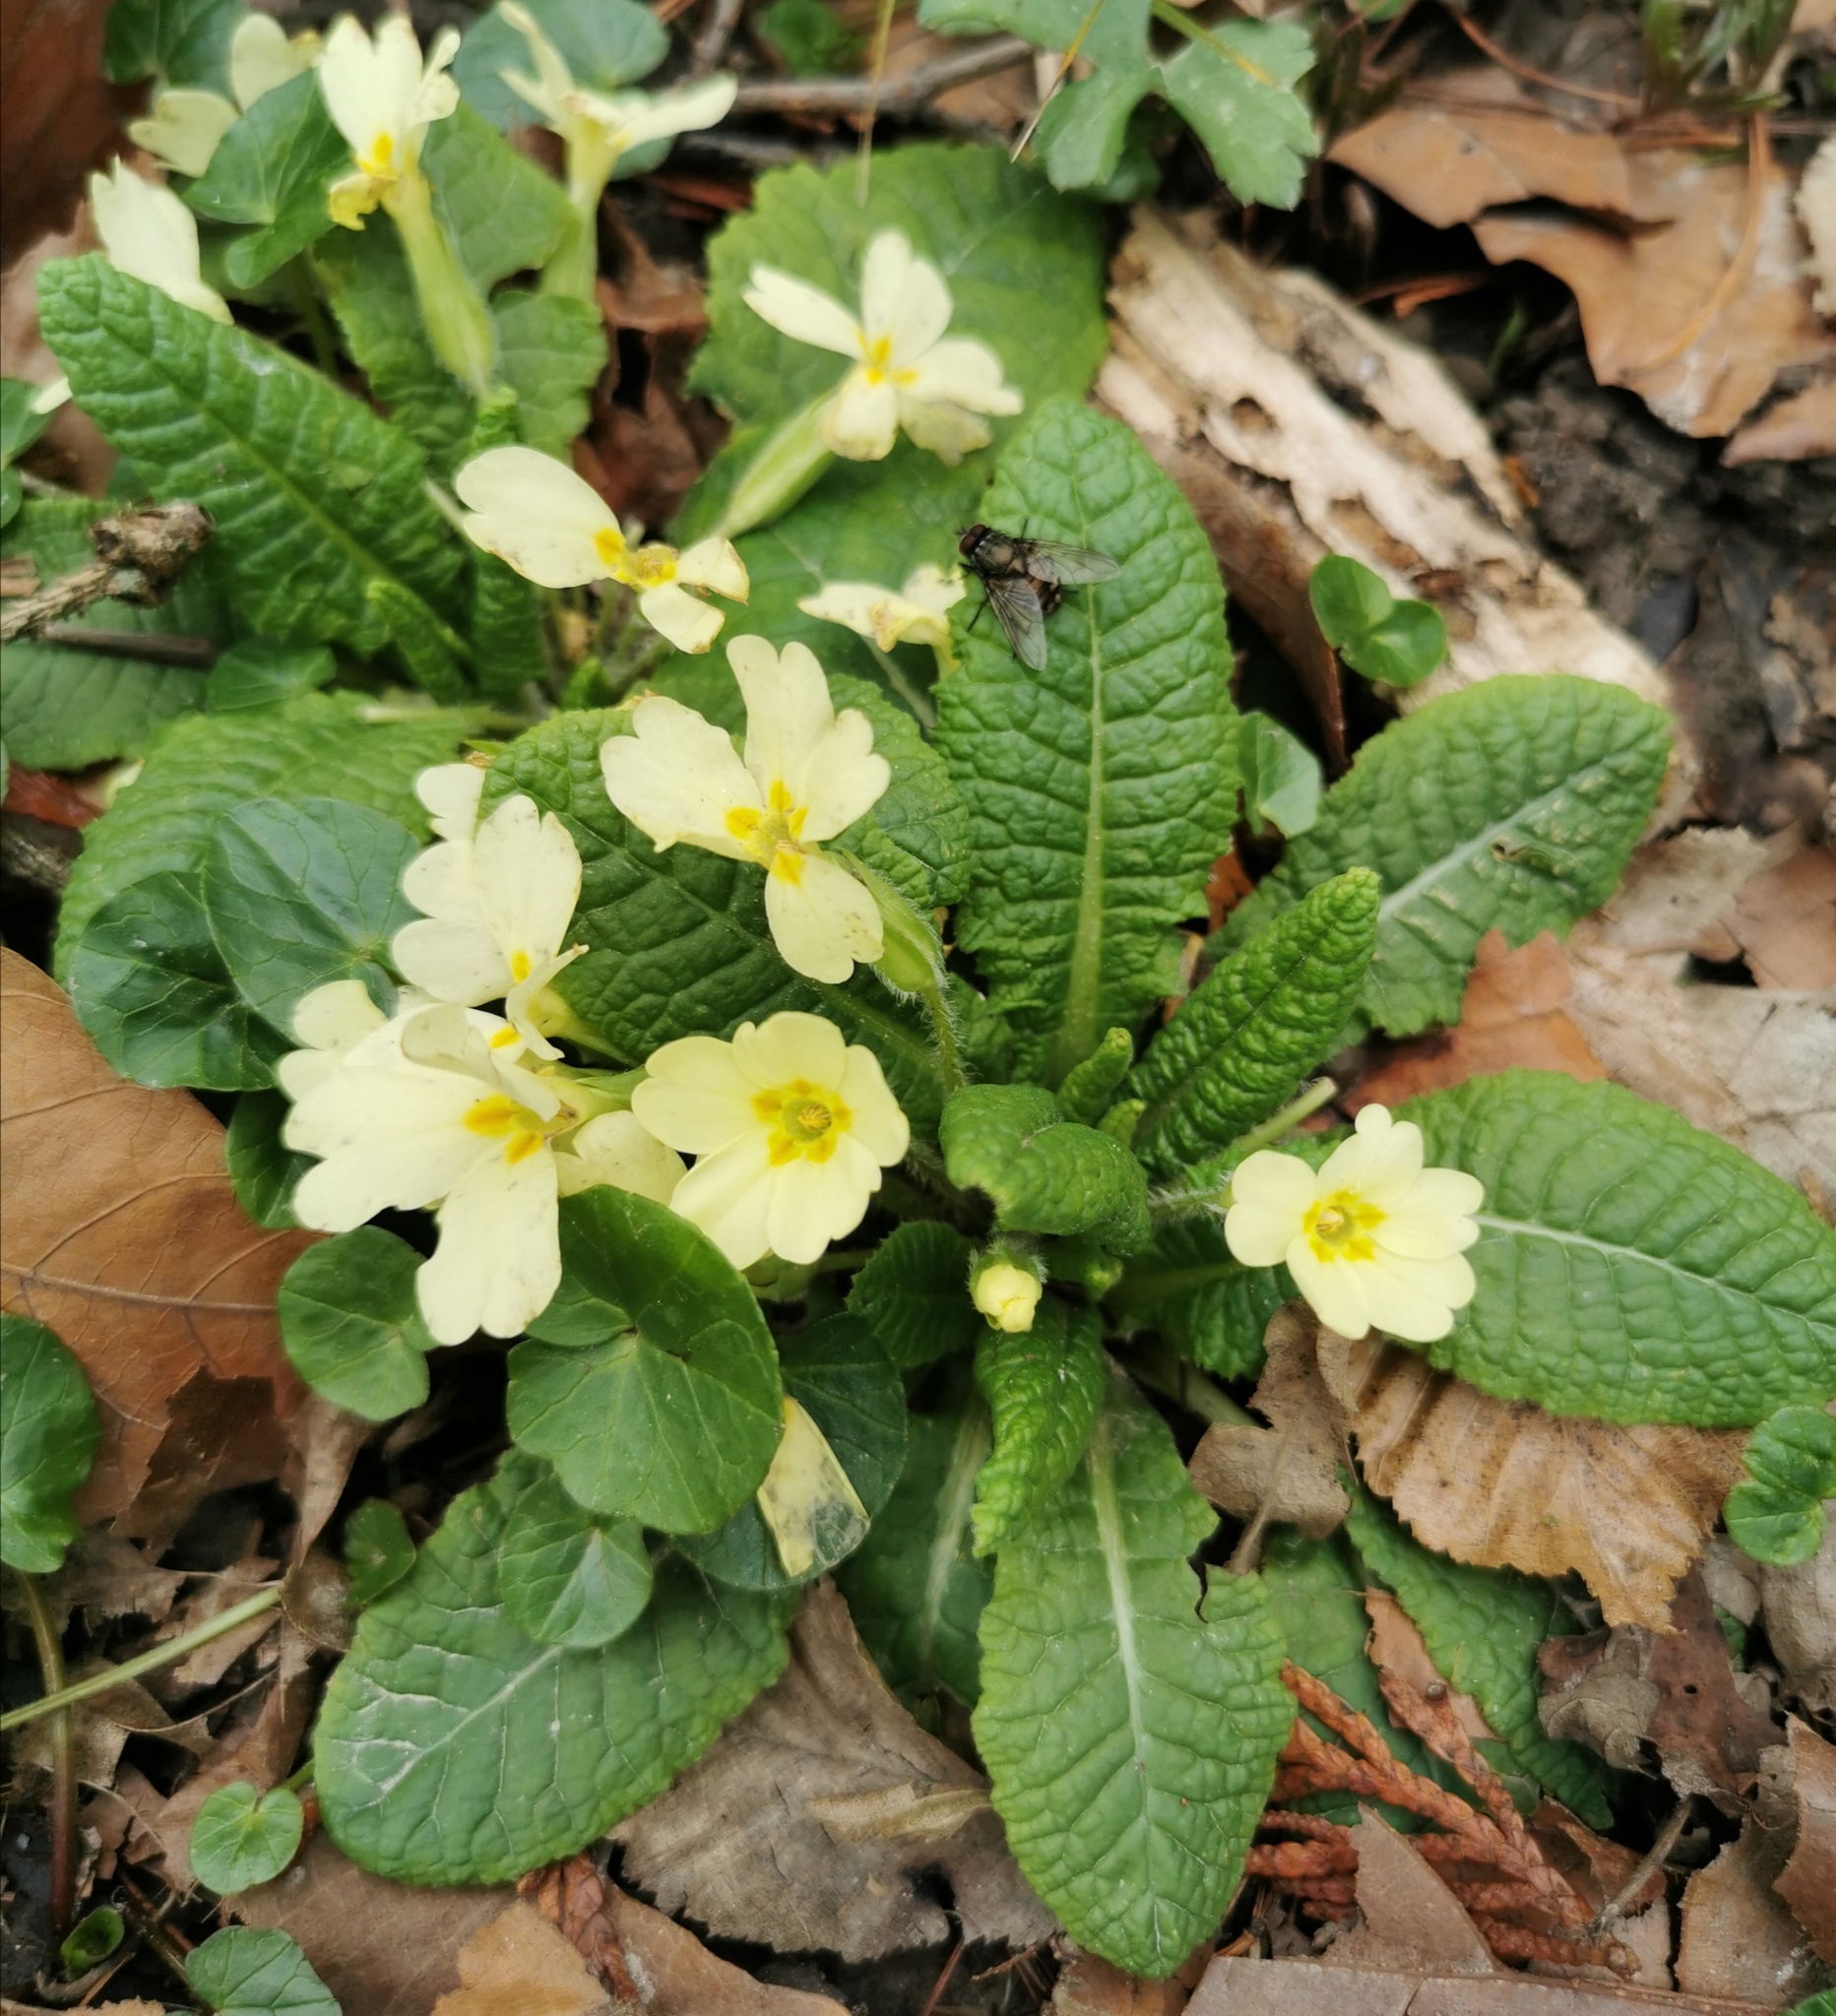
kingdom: Plantae
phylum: Tracheophyta
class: Magnoliopsida
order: Ericales
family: Primulaceae
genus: Primula
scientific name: Primula vulgaris
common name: Primrose
